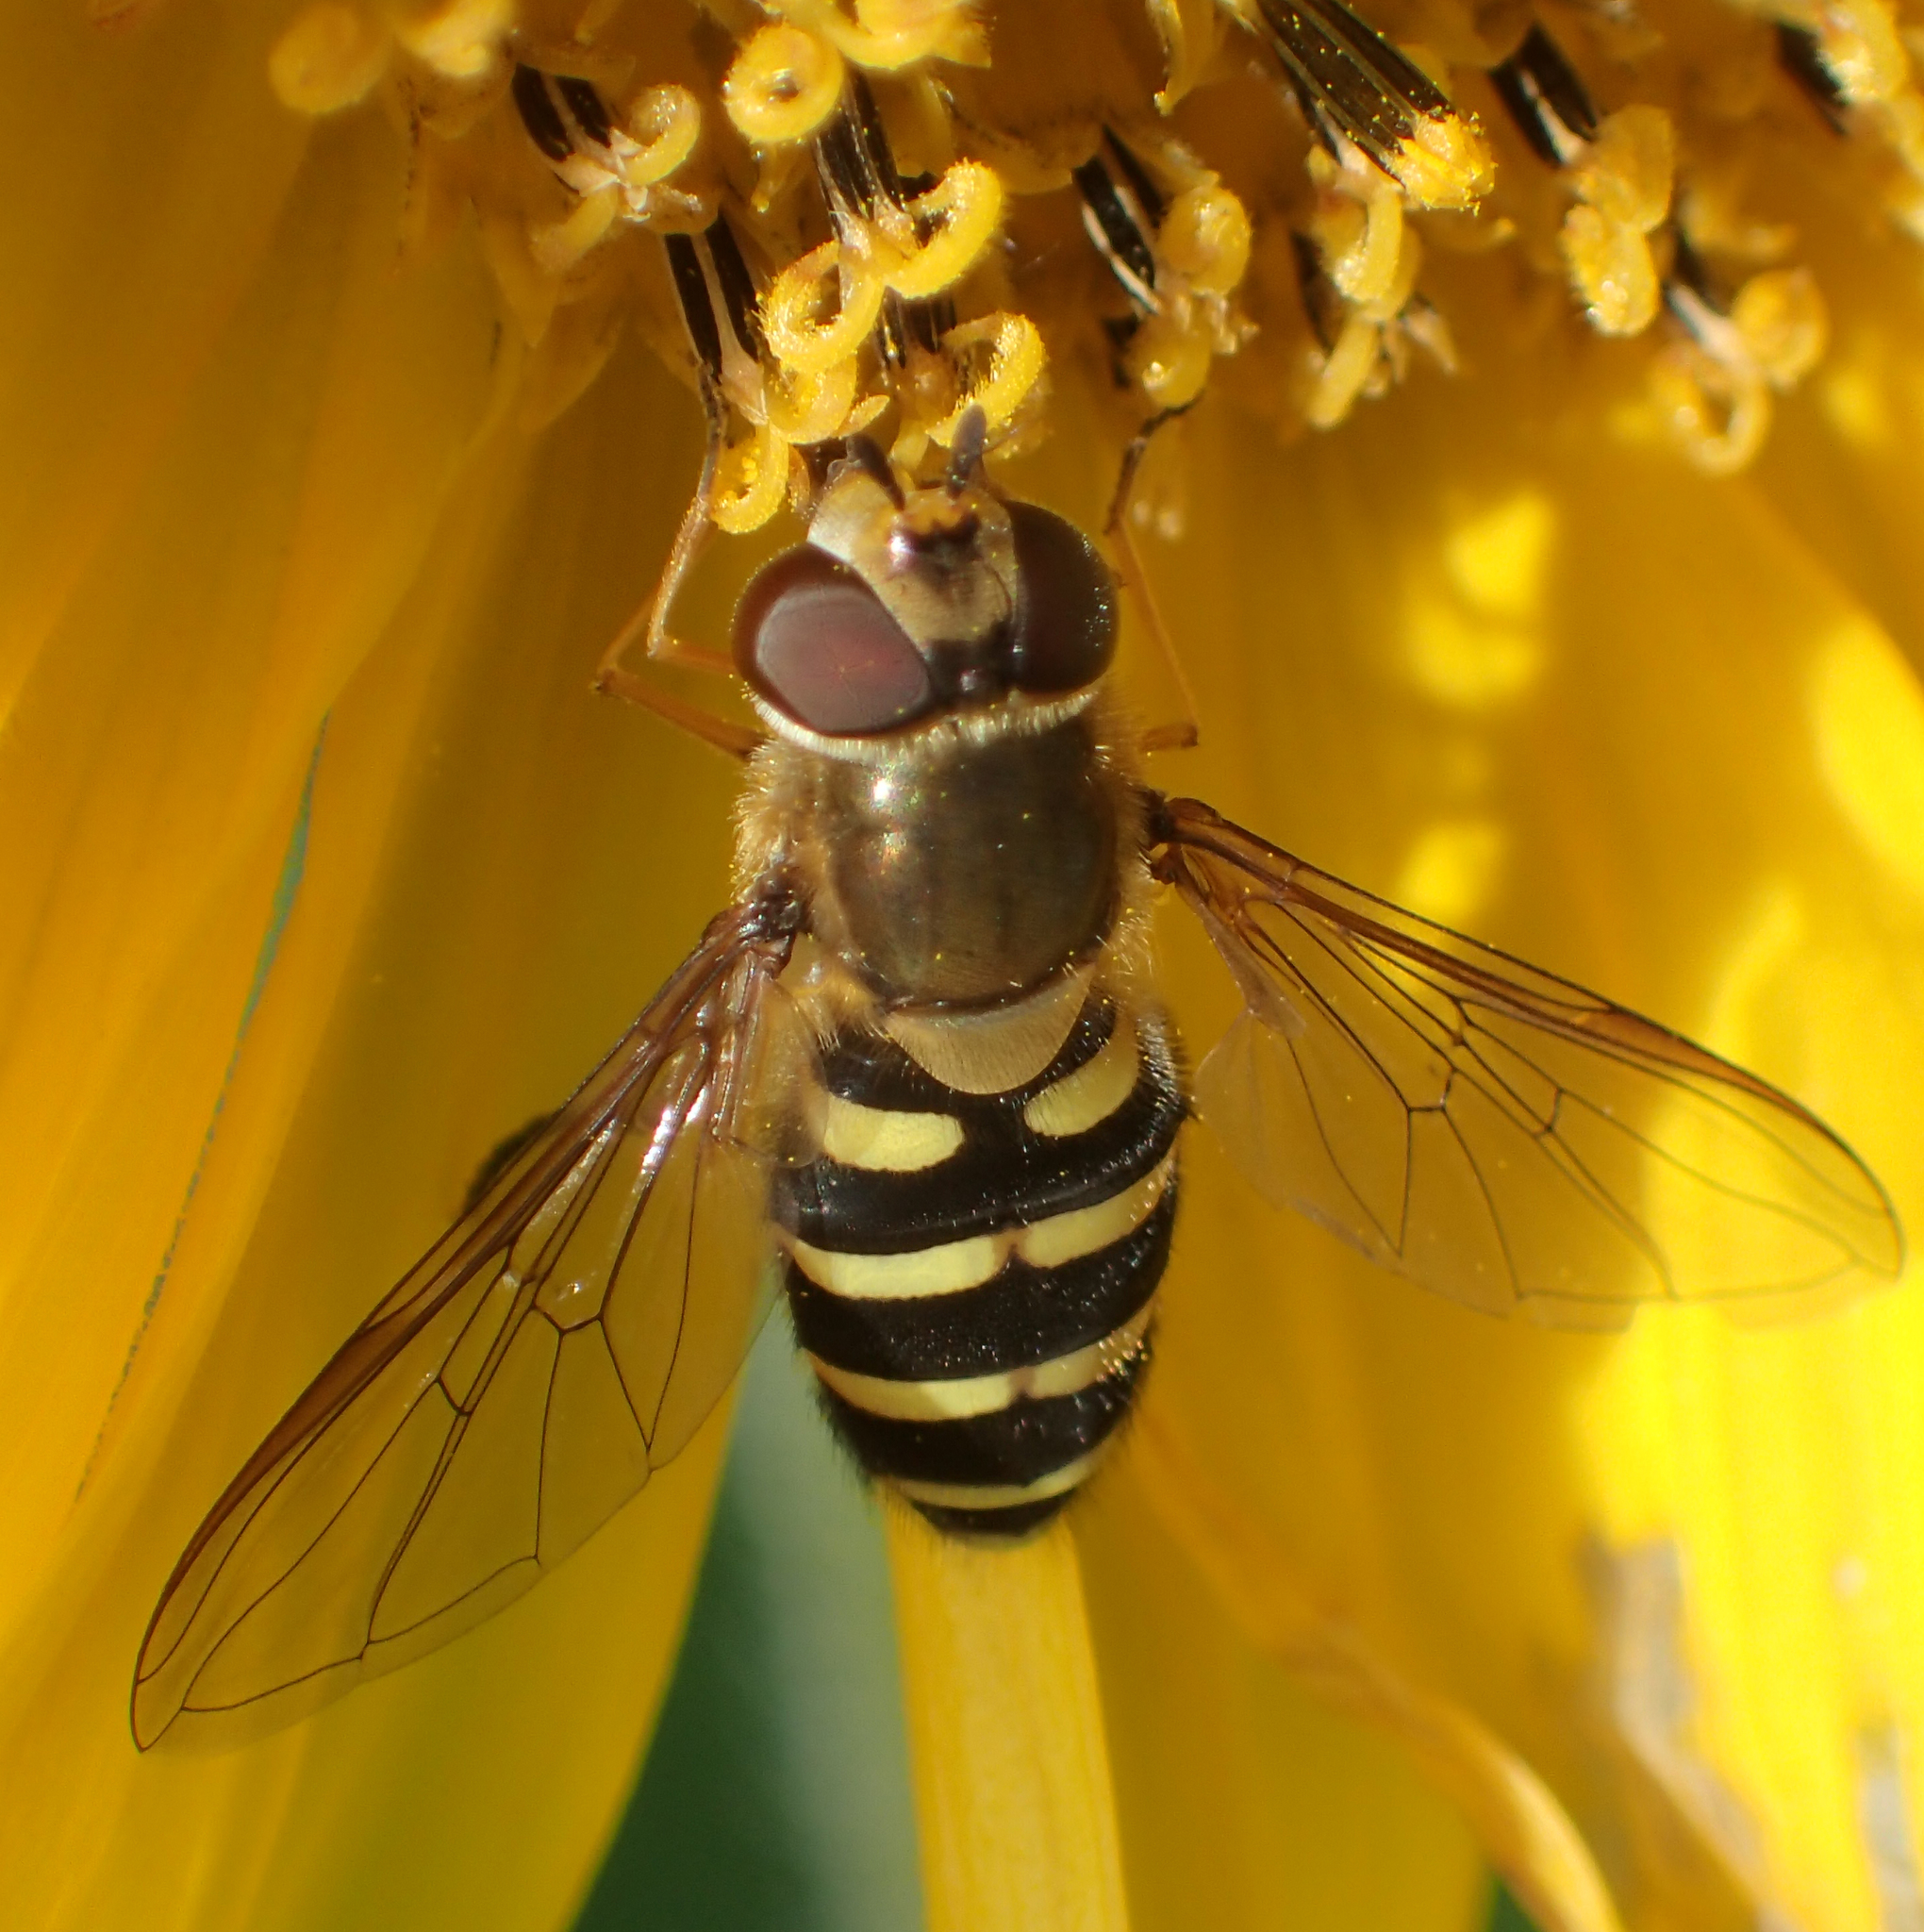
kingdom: Animalia
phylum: Arthropoda
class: Insecta
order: Diptera
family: Syrphidae
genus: Syrphus
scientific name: Syrphus torvus
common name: Hairy-eyed flower fly
